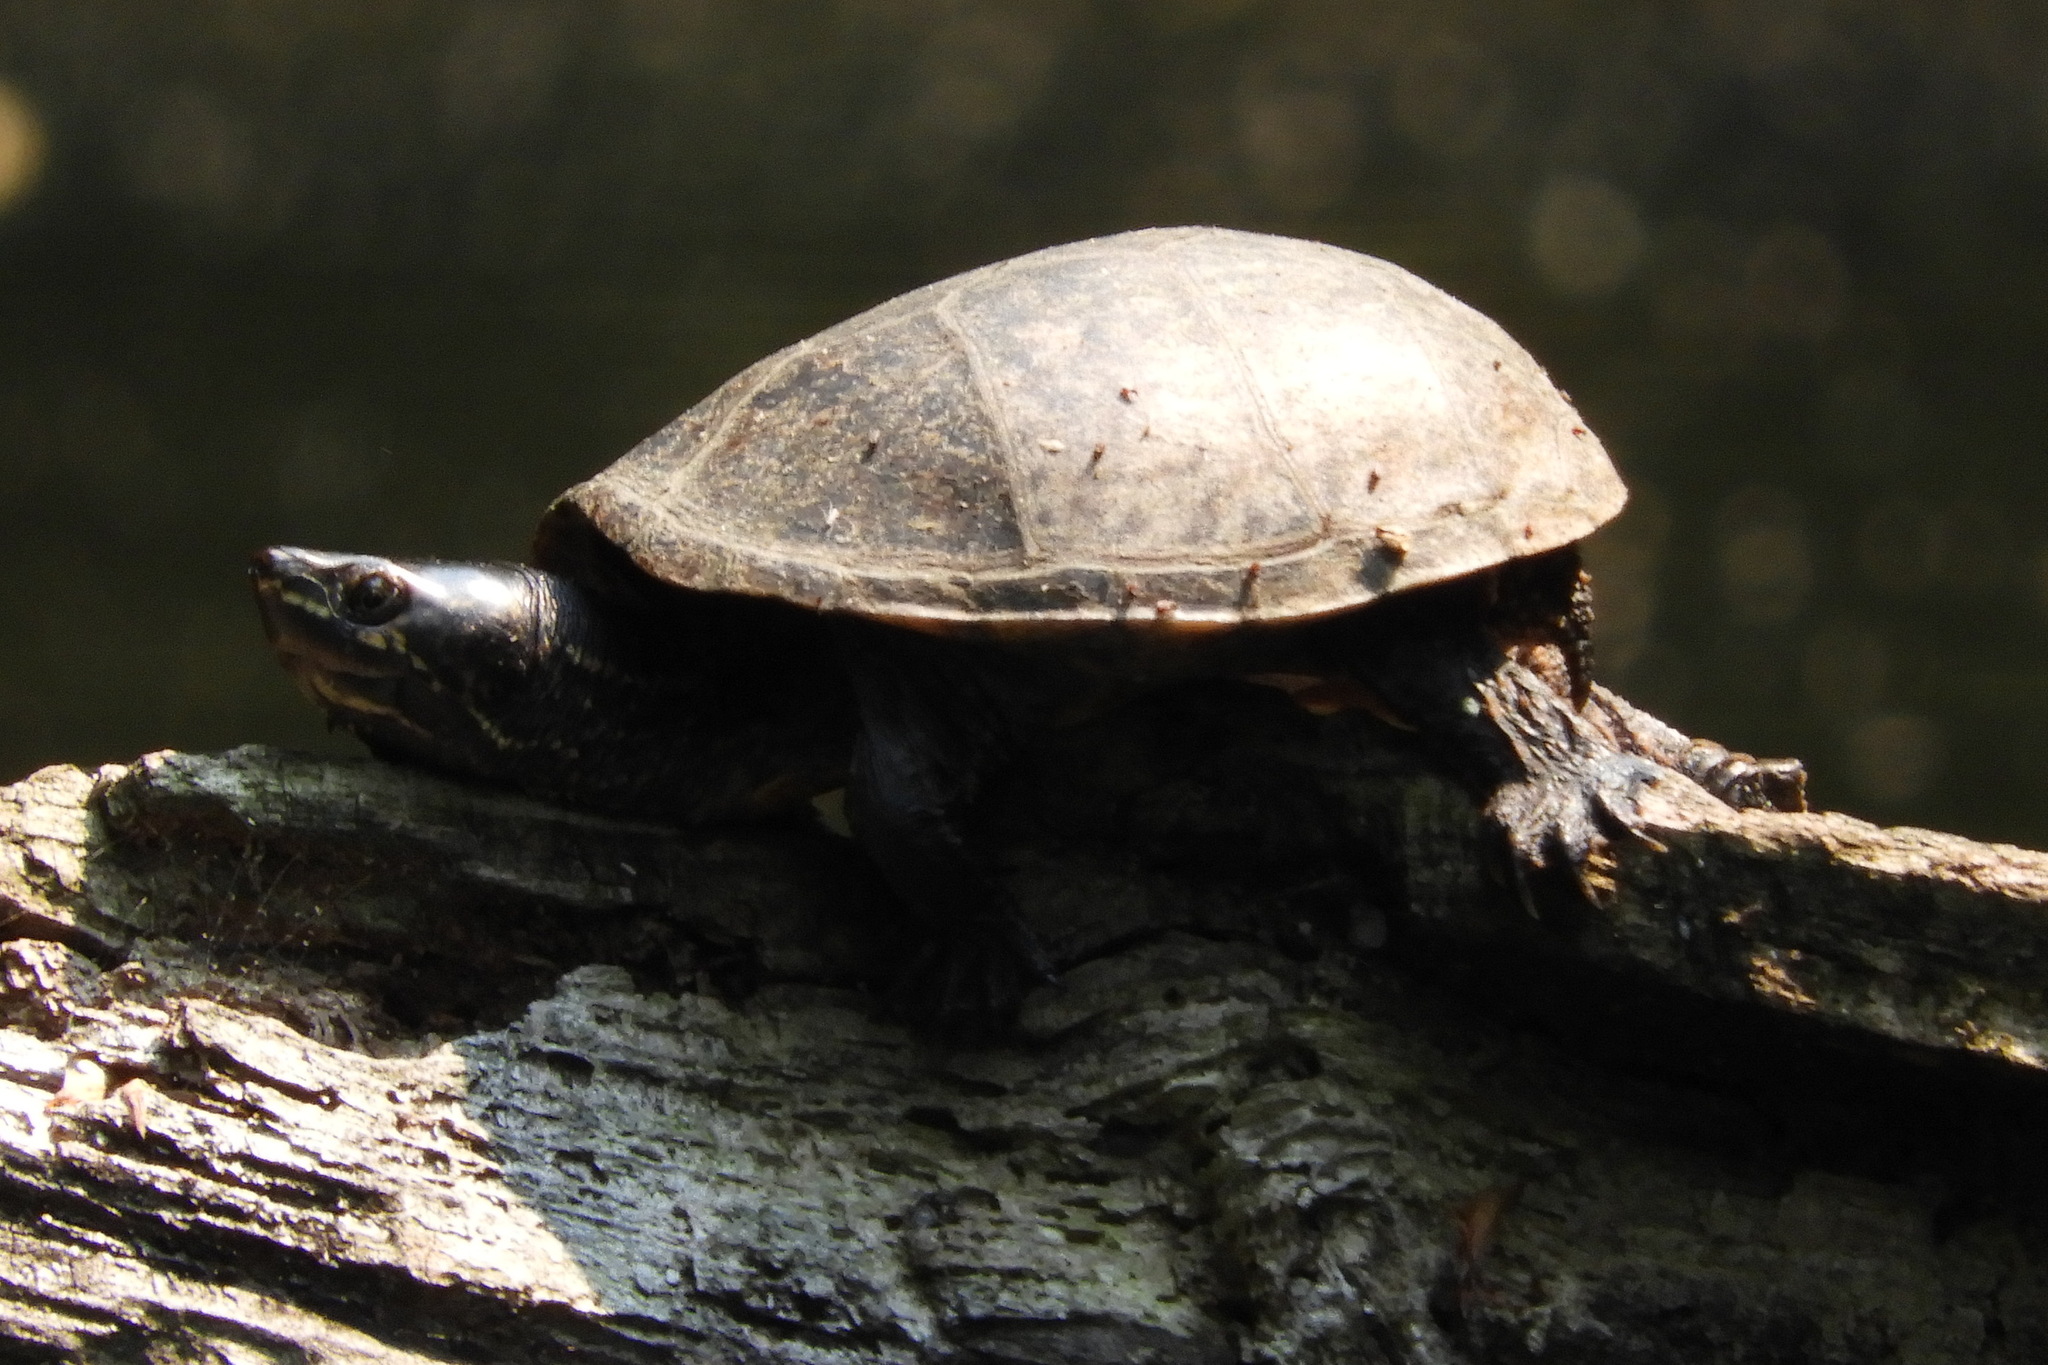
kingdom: Animalia
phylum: Chordata
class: Testudines
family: Kinosternidae
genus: Sternotherus
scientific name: Sternotherus odoratus
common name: Common musk turtle
